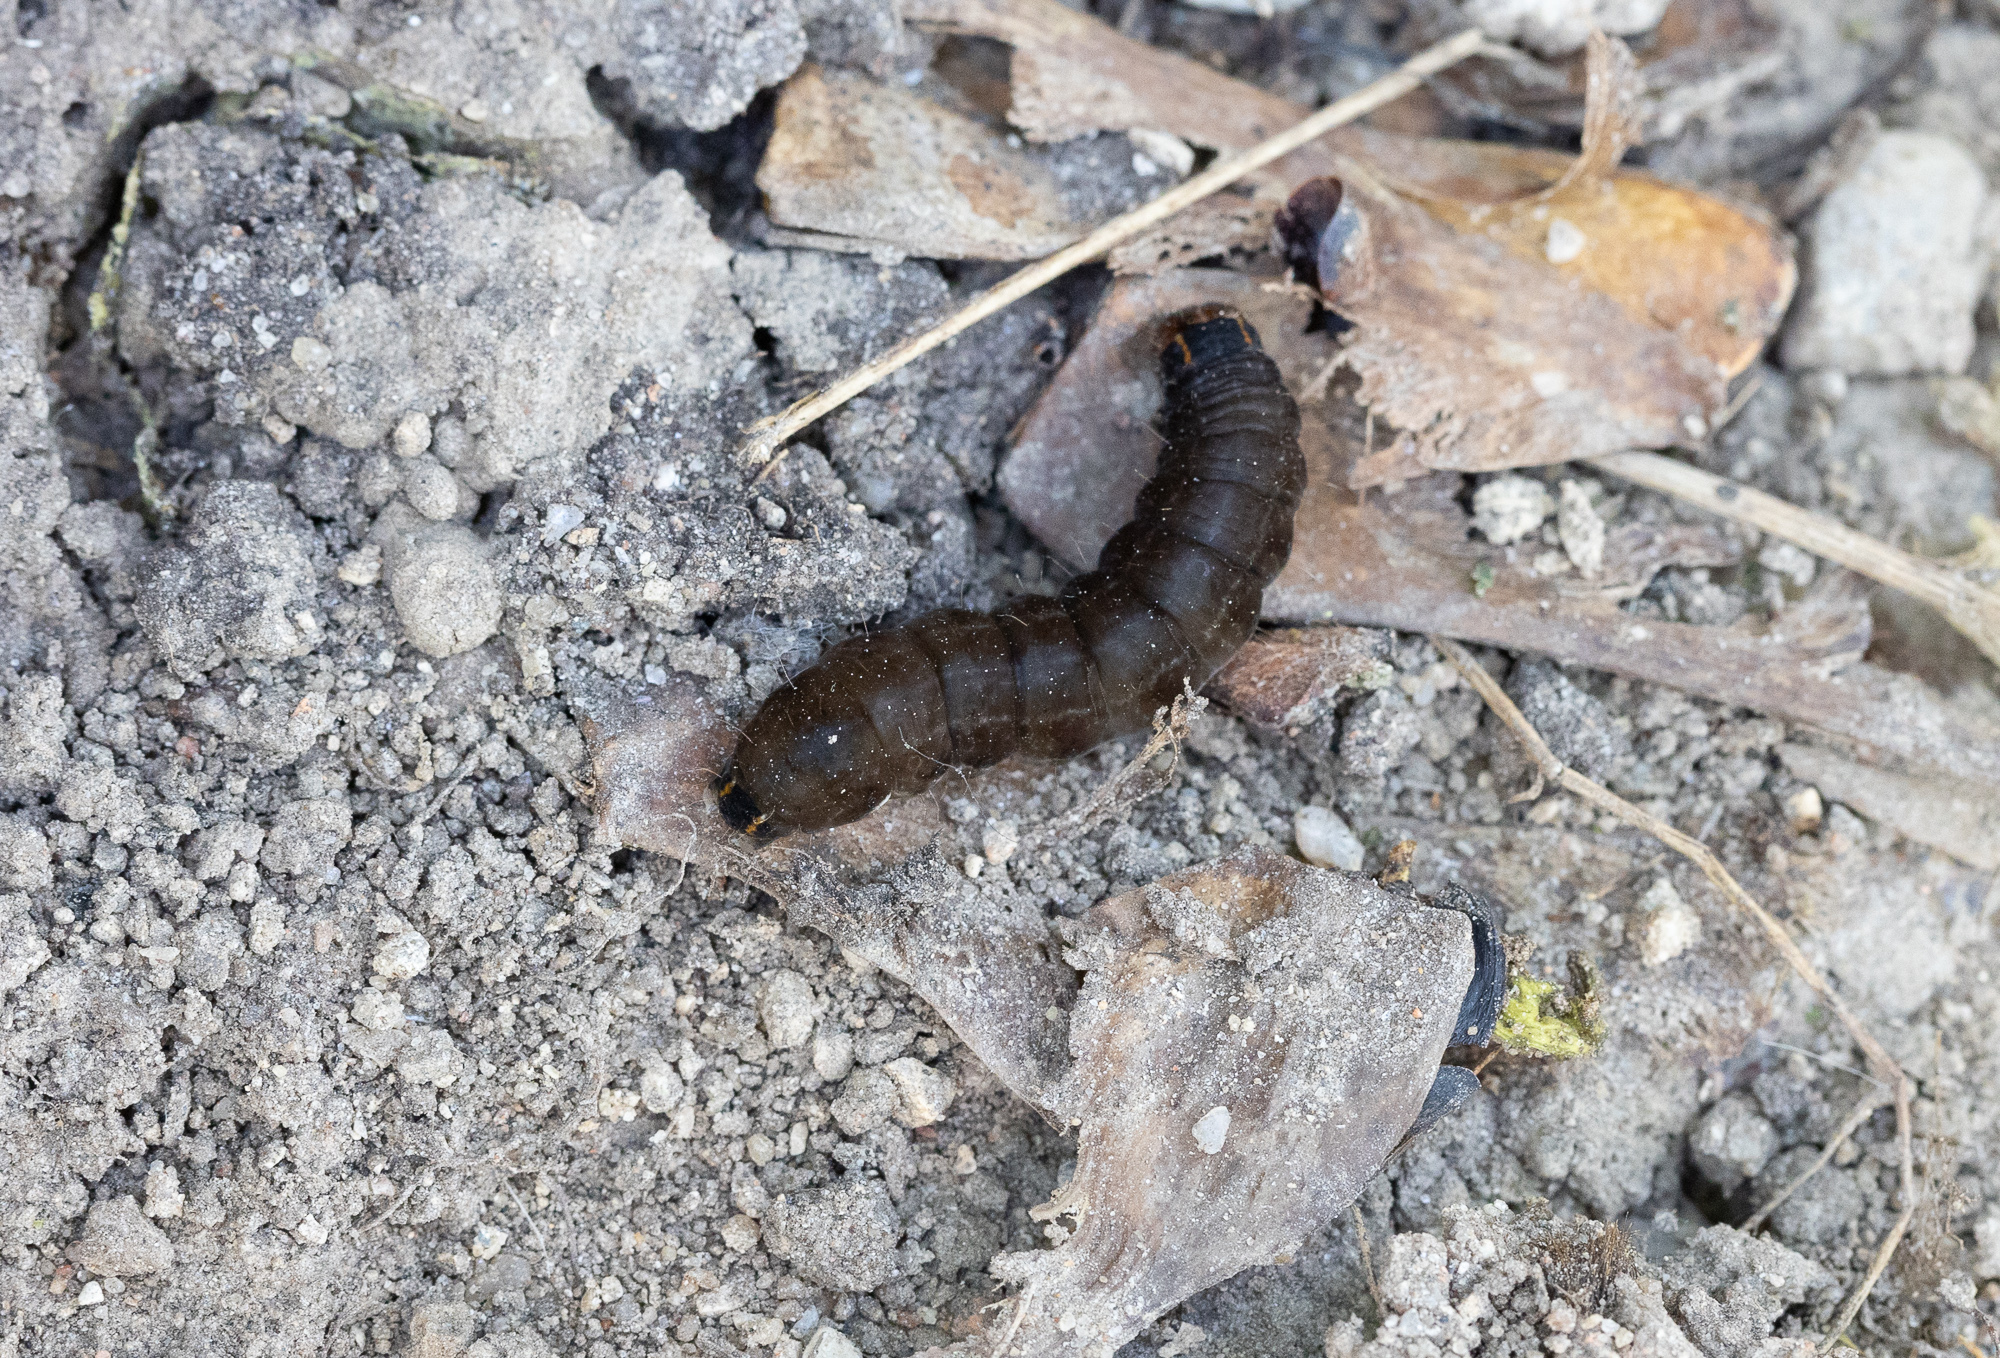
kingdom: Animalia
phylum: Arthropoda
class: Insecta
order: Lepidoptera
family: Noctuidae
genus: Eupsilia
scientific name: Eupsilia transversa
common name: Satellite
